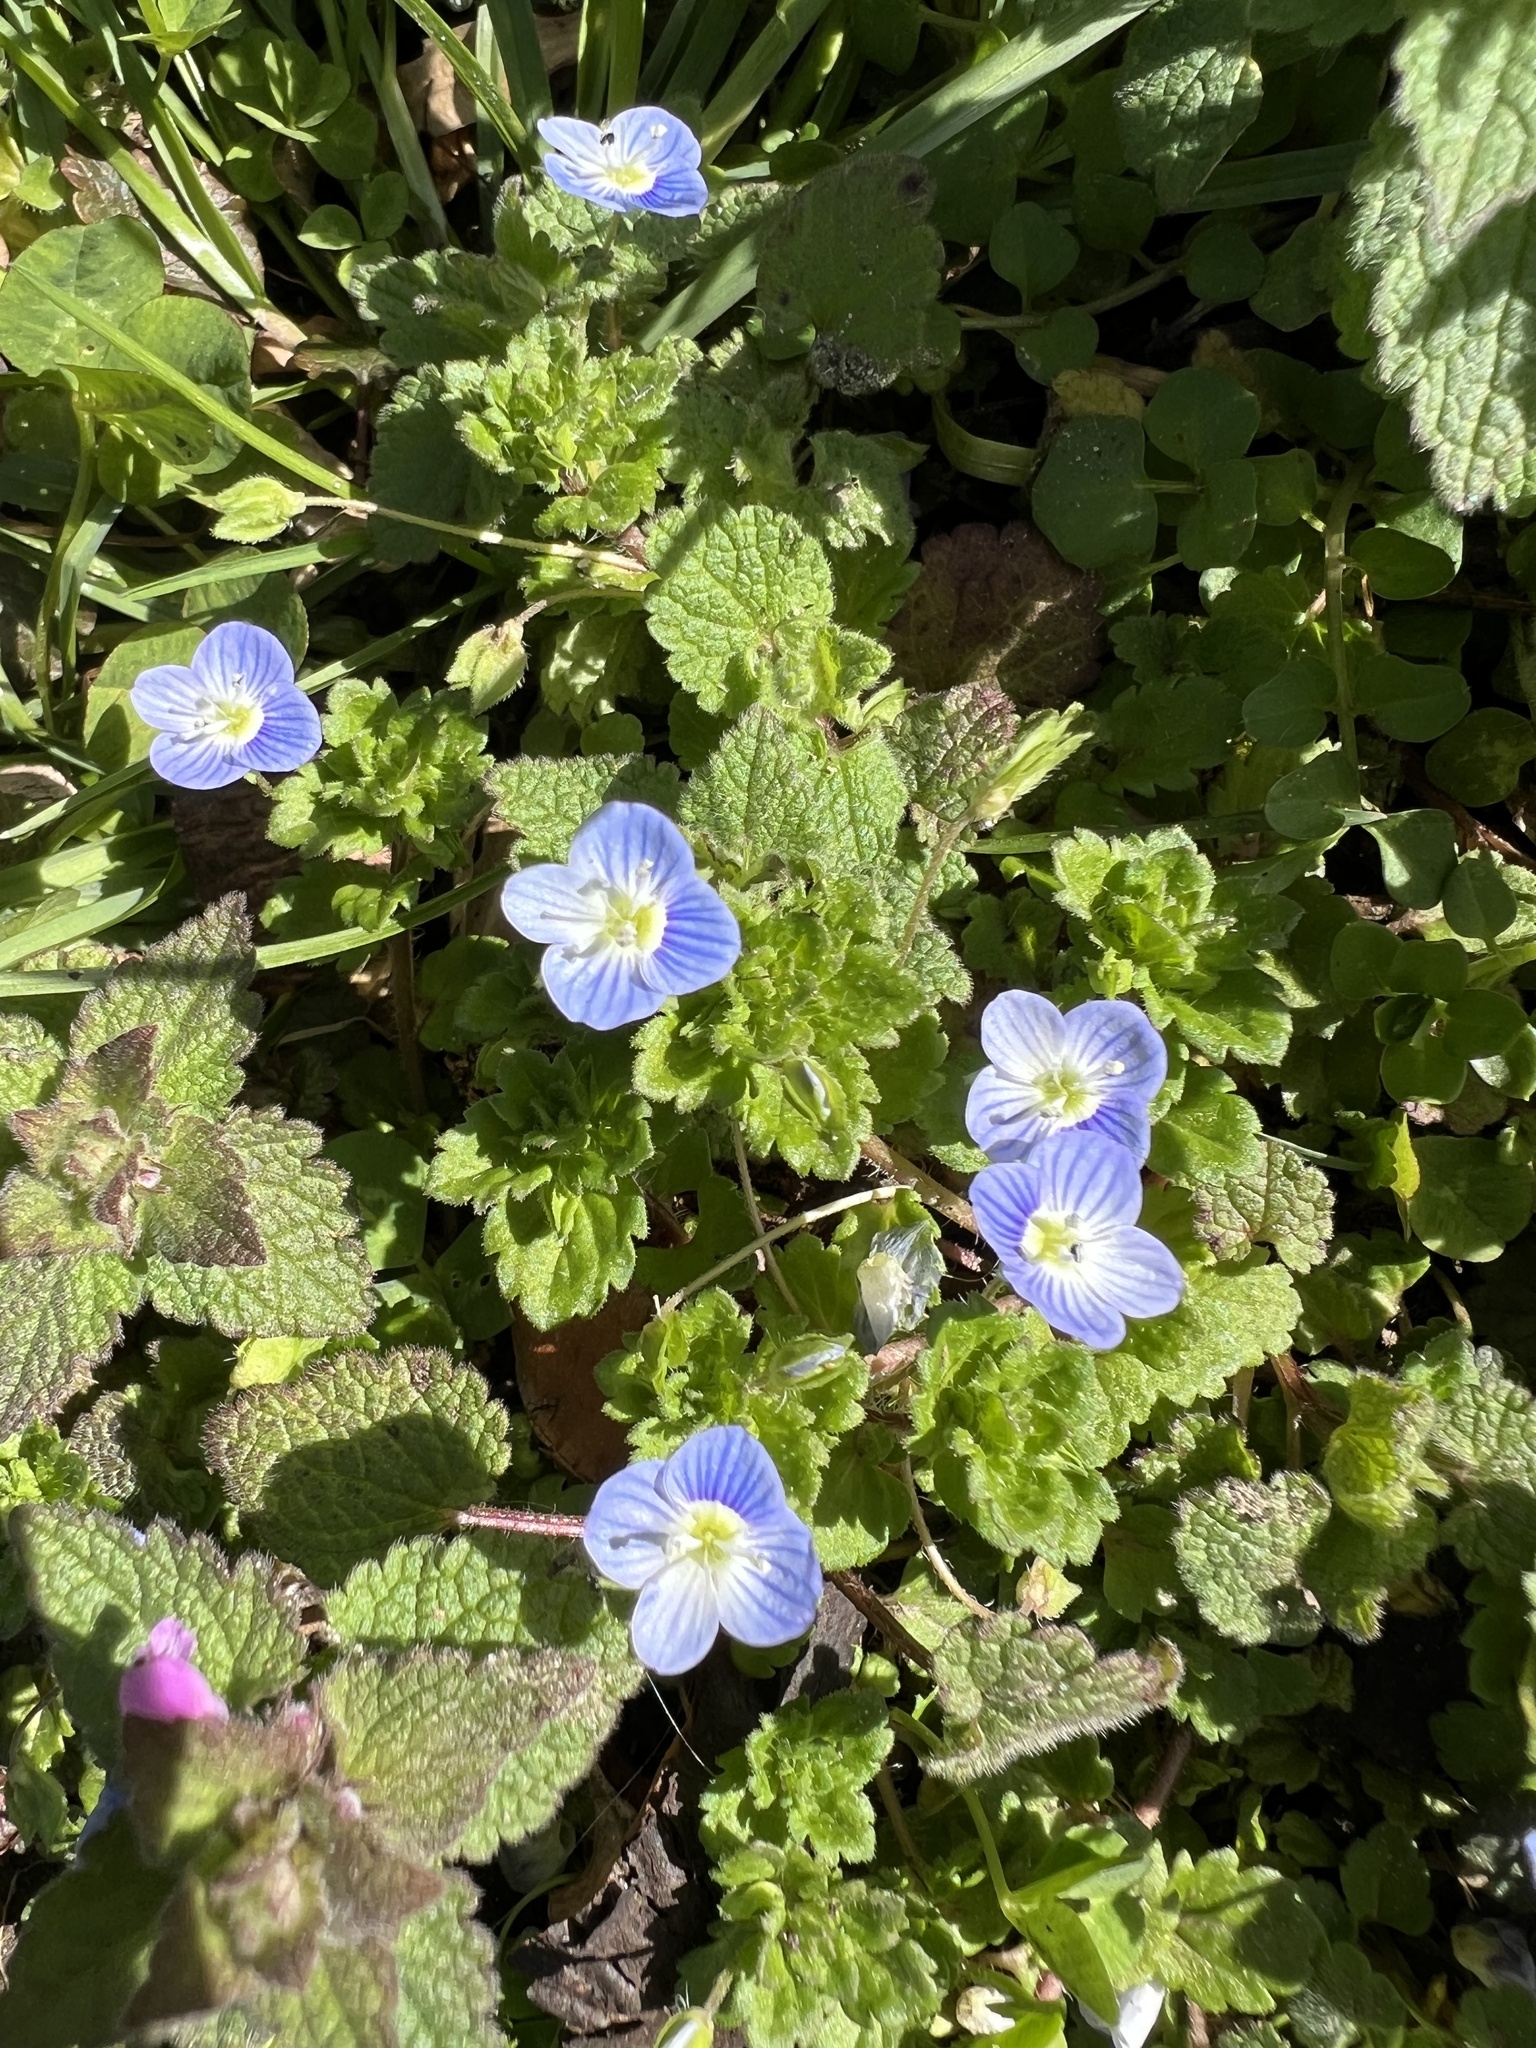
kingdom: Plantae
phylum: Tracheophyta
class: Magnoliopsida
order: Lamiales
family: Plantaginaceae
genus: Veronica
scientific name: Veronica persica
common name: Common field-speedwell
